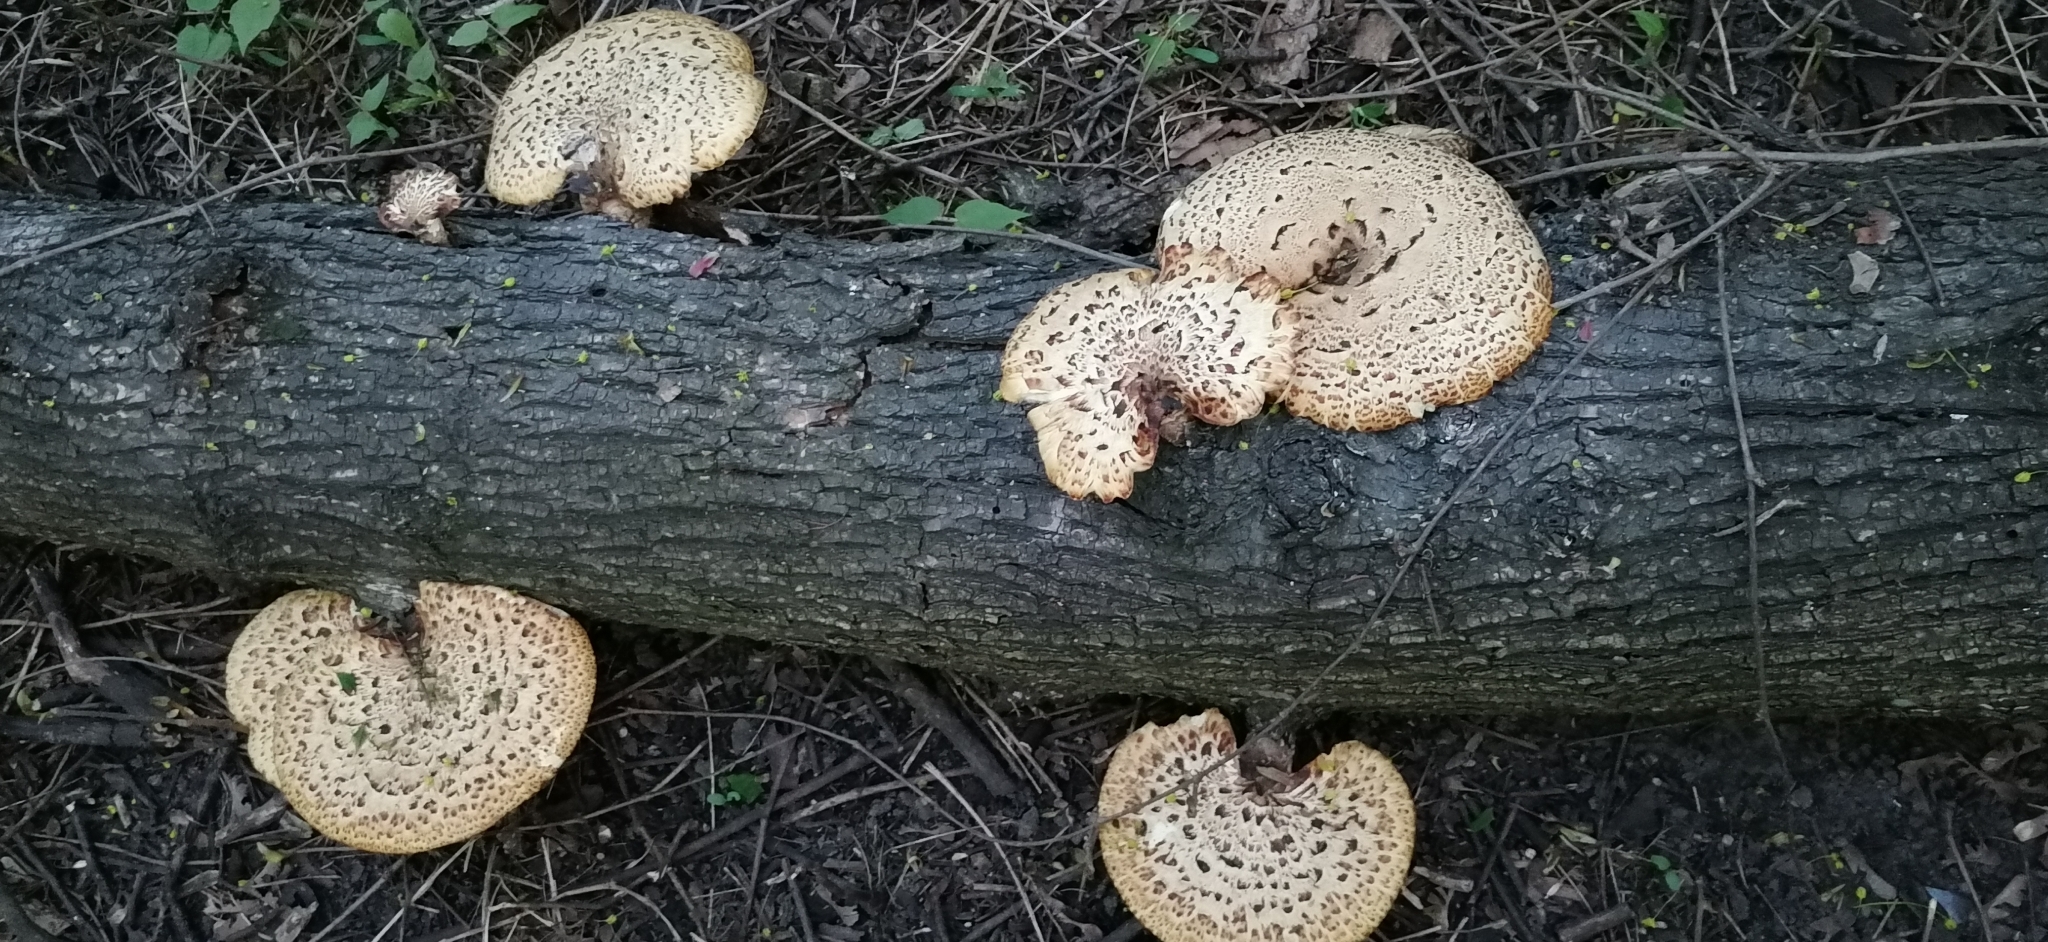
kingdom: Fungi
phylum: Basidiomycota
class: Agaricomycetes
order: Polyporales
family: Polyporaceae
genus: Cerioporus
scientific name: Cerioporus squamosus
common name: Dryad's saddle
